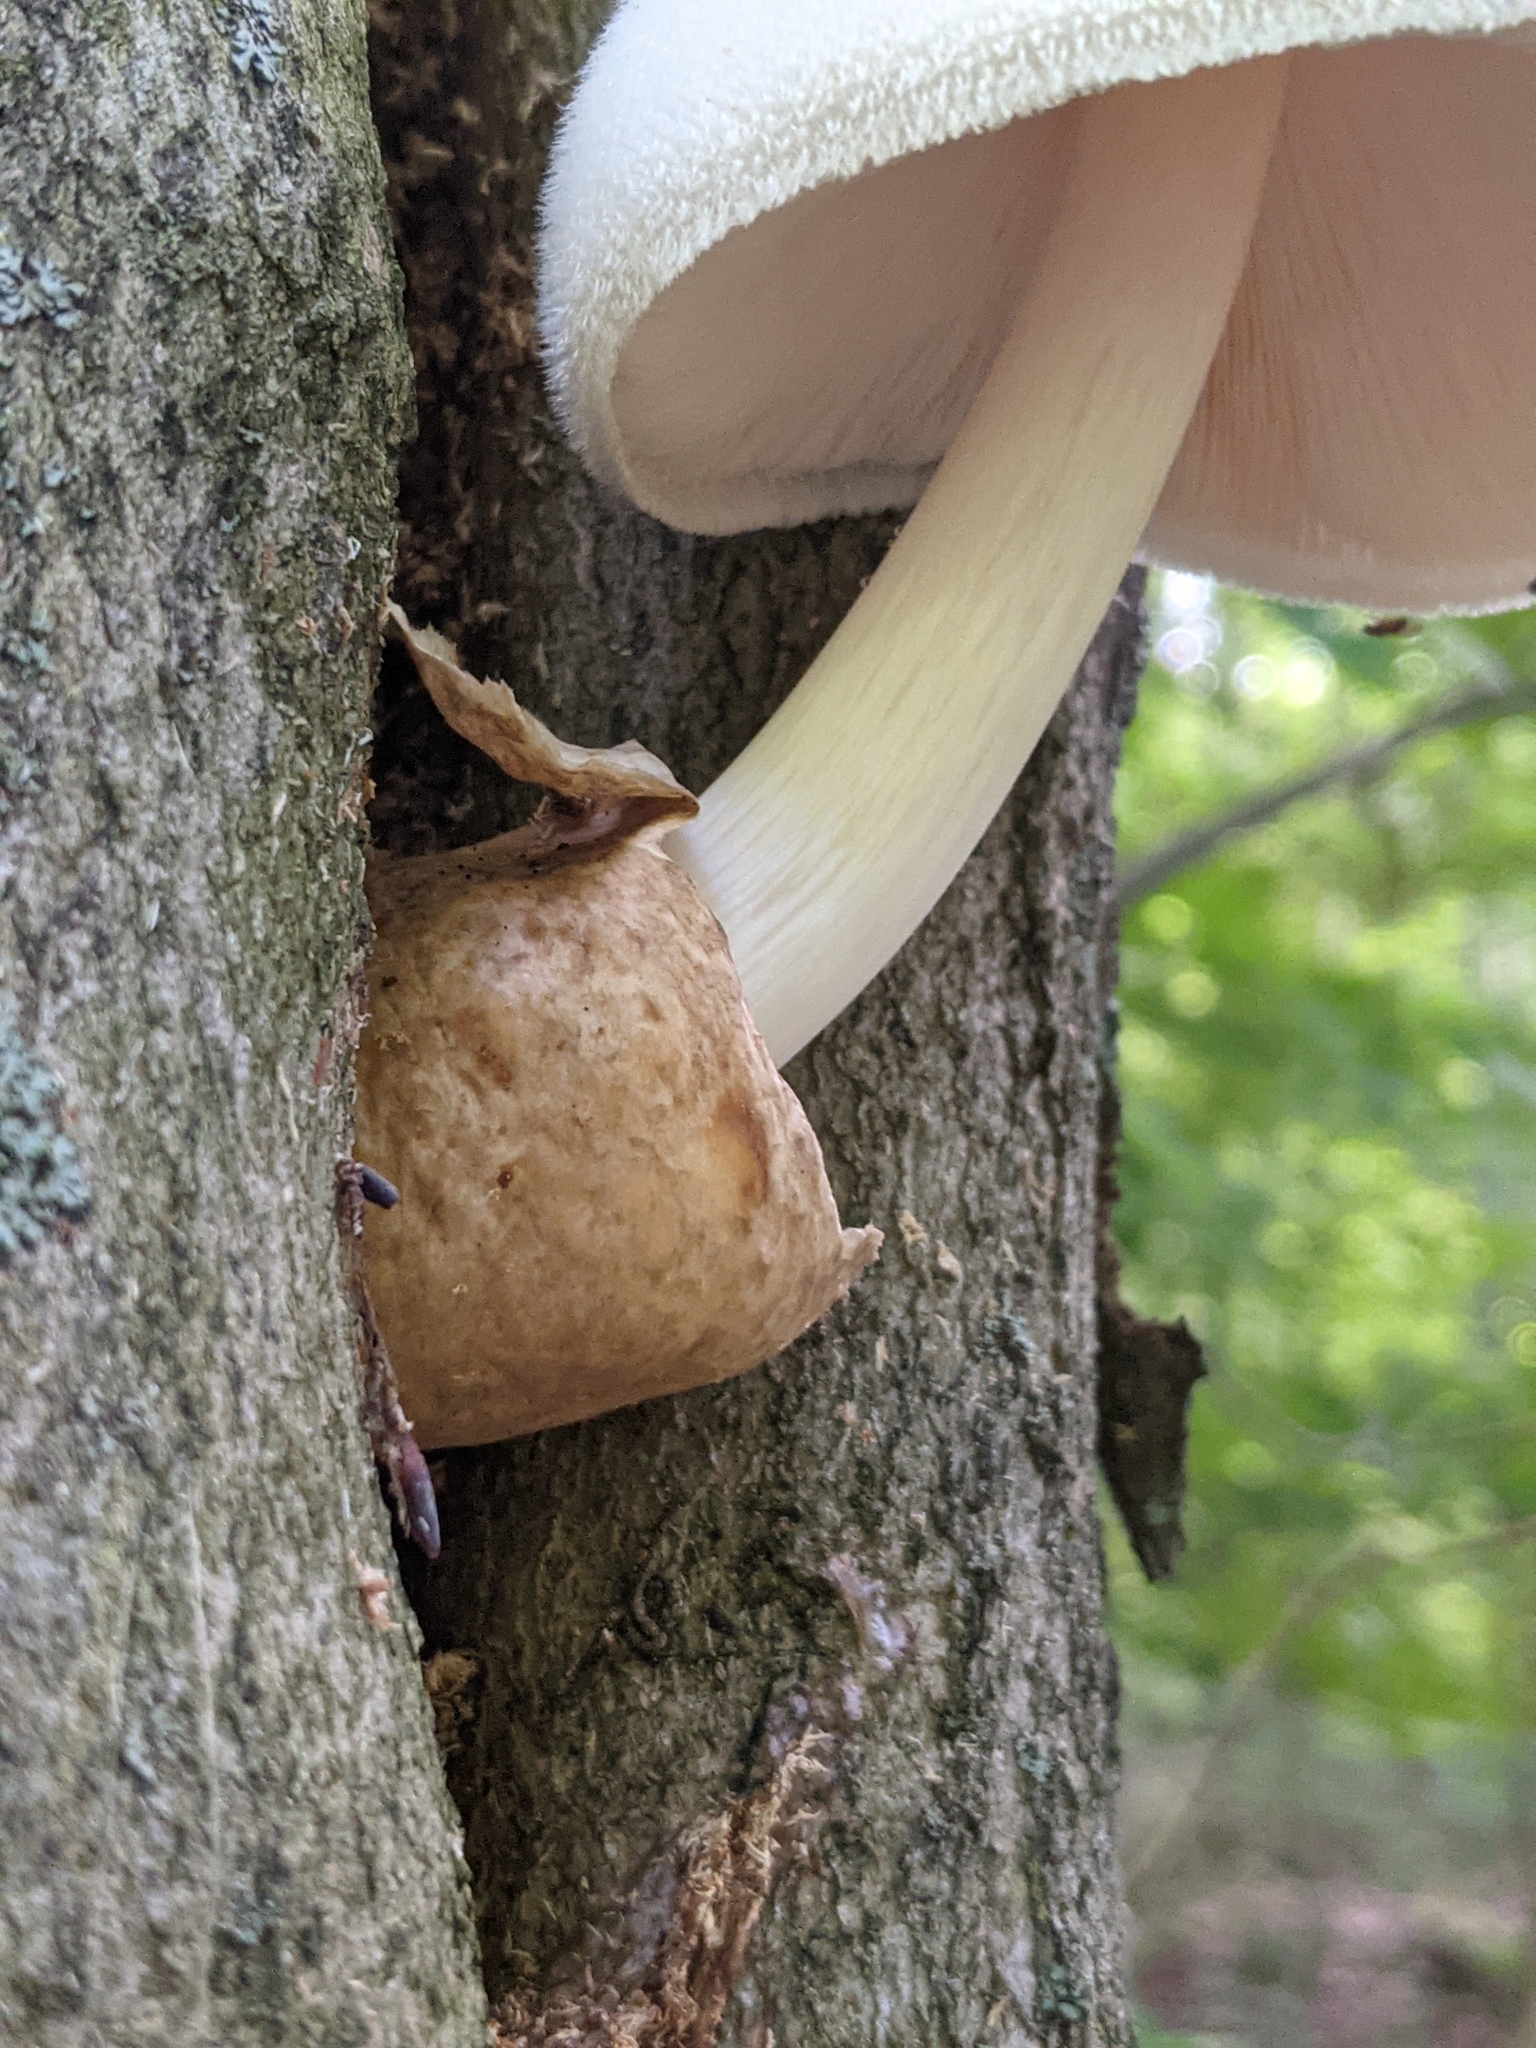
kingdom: Fungi
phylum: Basidiomycota
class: Agaricomycetes
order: Agaricales
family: Pluteaceae
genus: Volvariella
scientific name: Volvariella bombycina
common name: Silky rosegill
